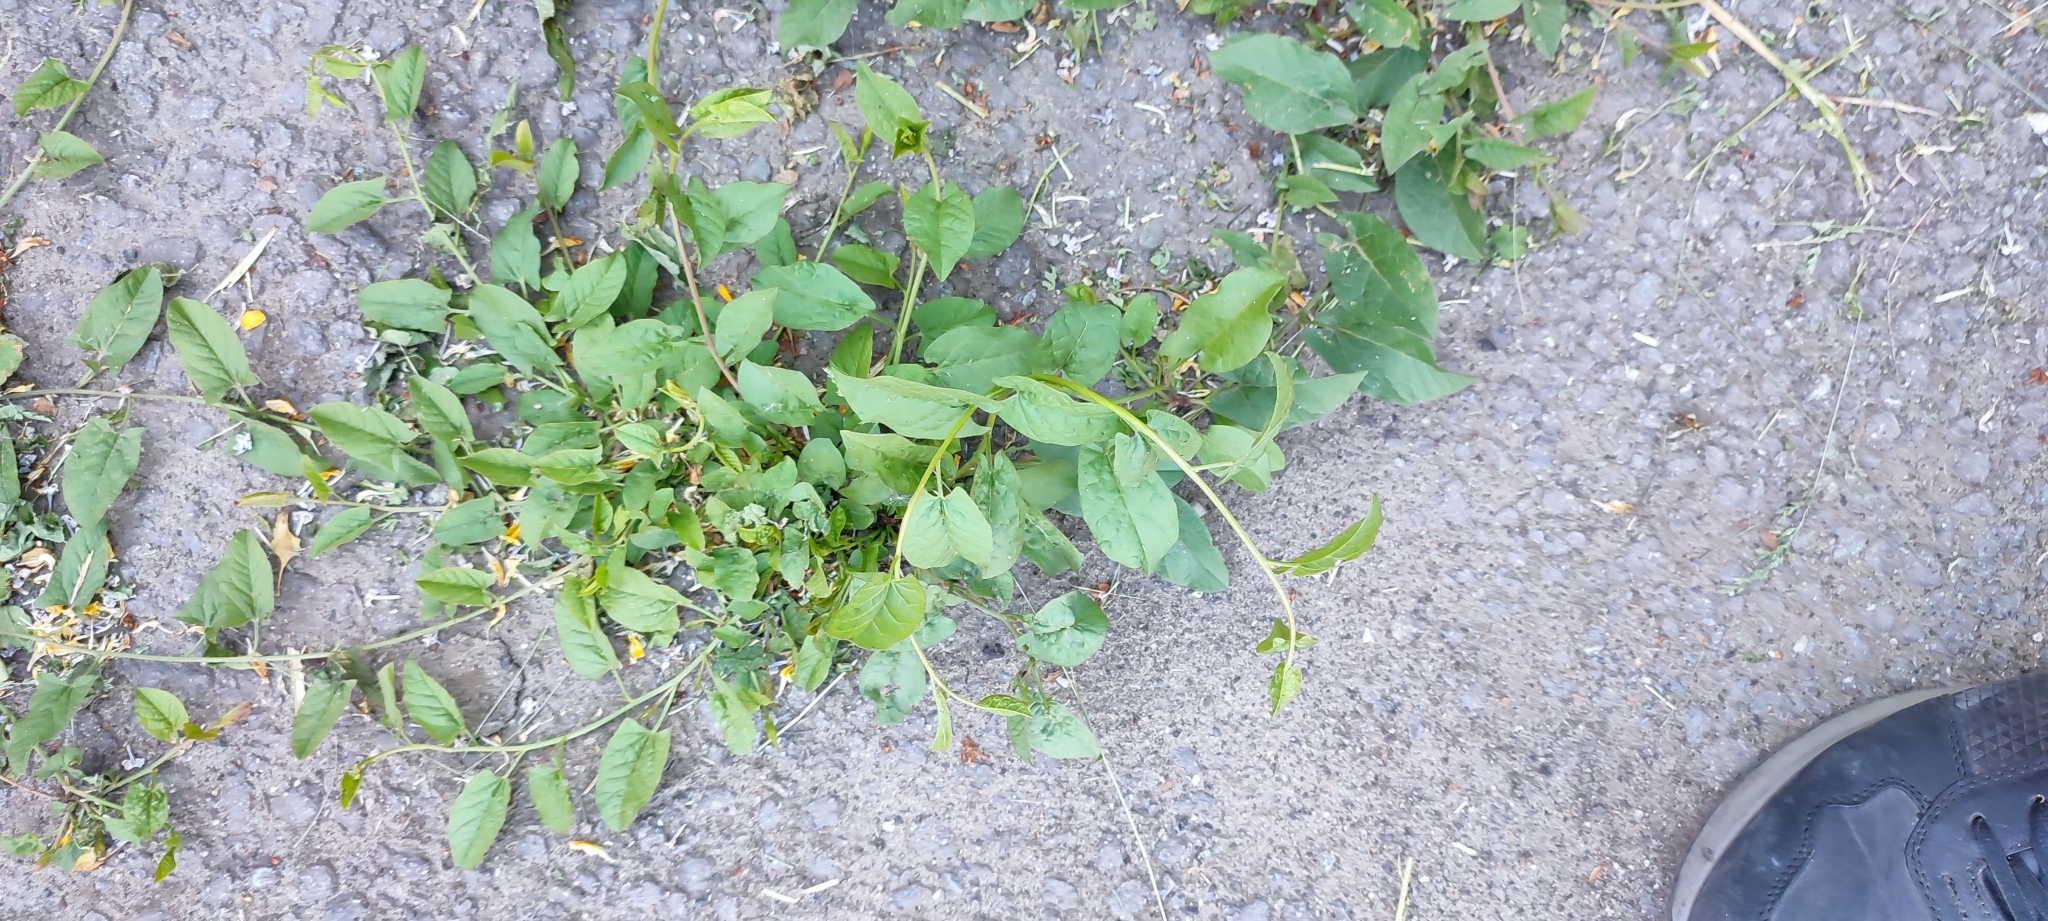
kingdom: Plantae
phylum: Tracheophyta
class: Magnoliopsida
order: Solanales
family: Convolvulaceae
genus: Convolvulus
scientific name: Convolvulus arvensis
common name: Field bindweed
